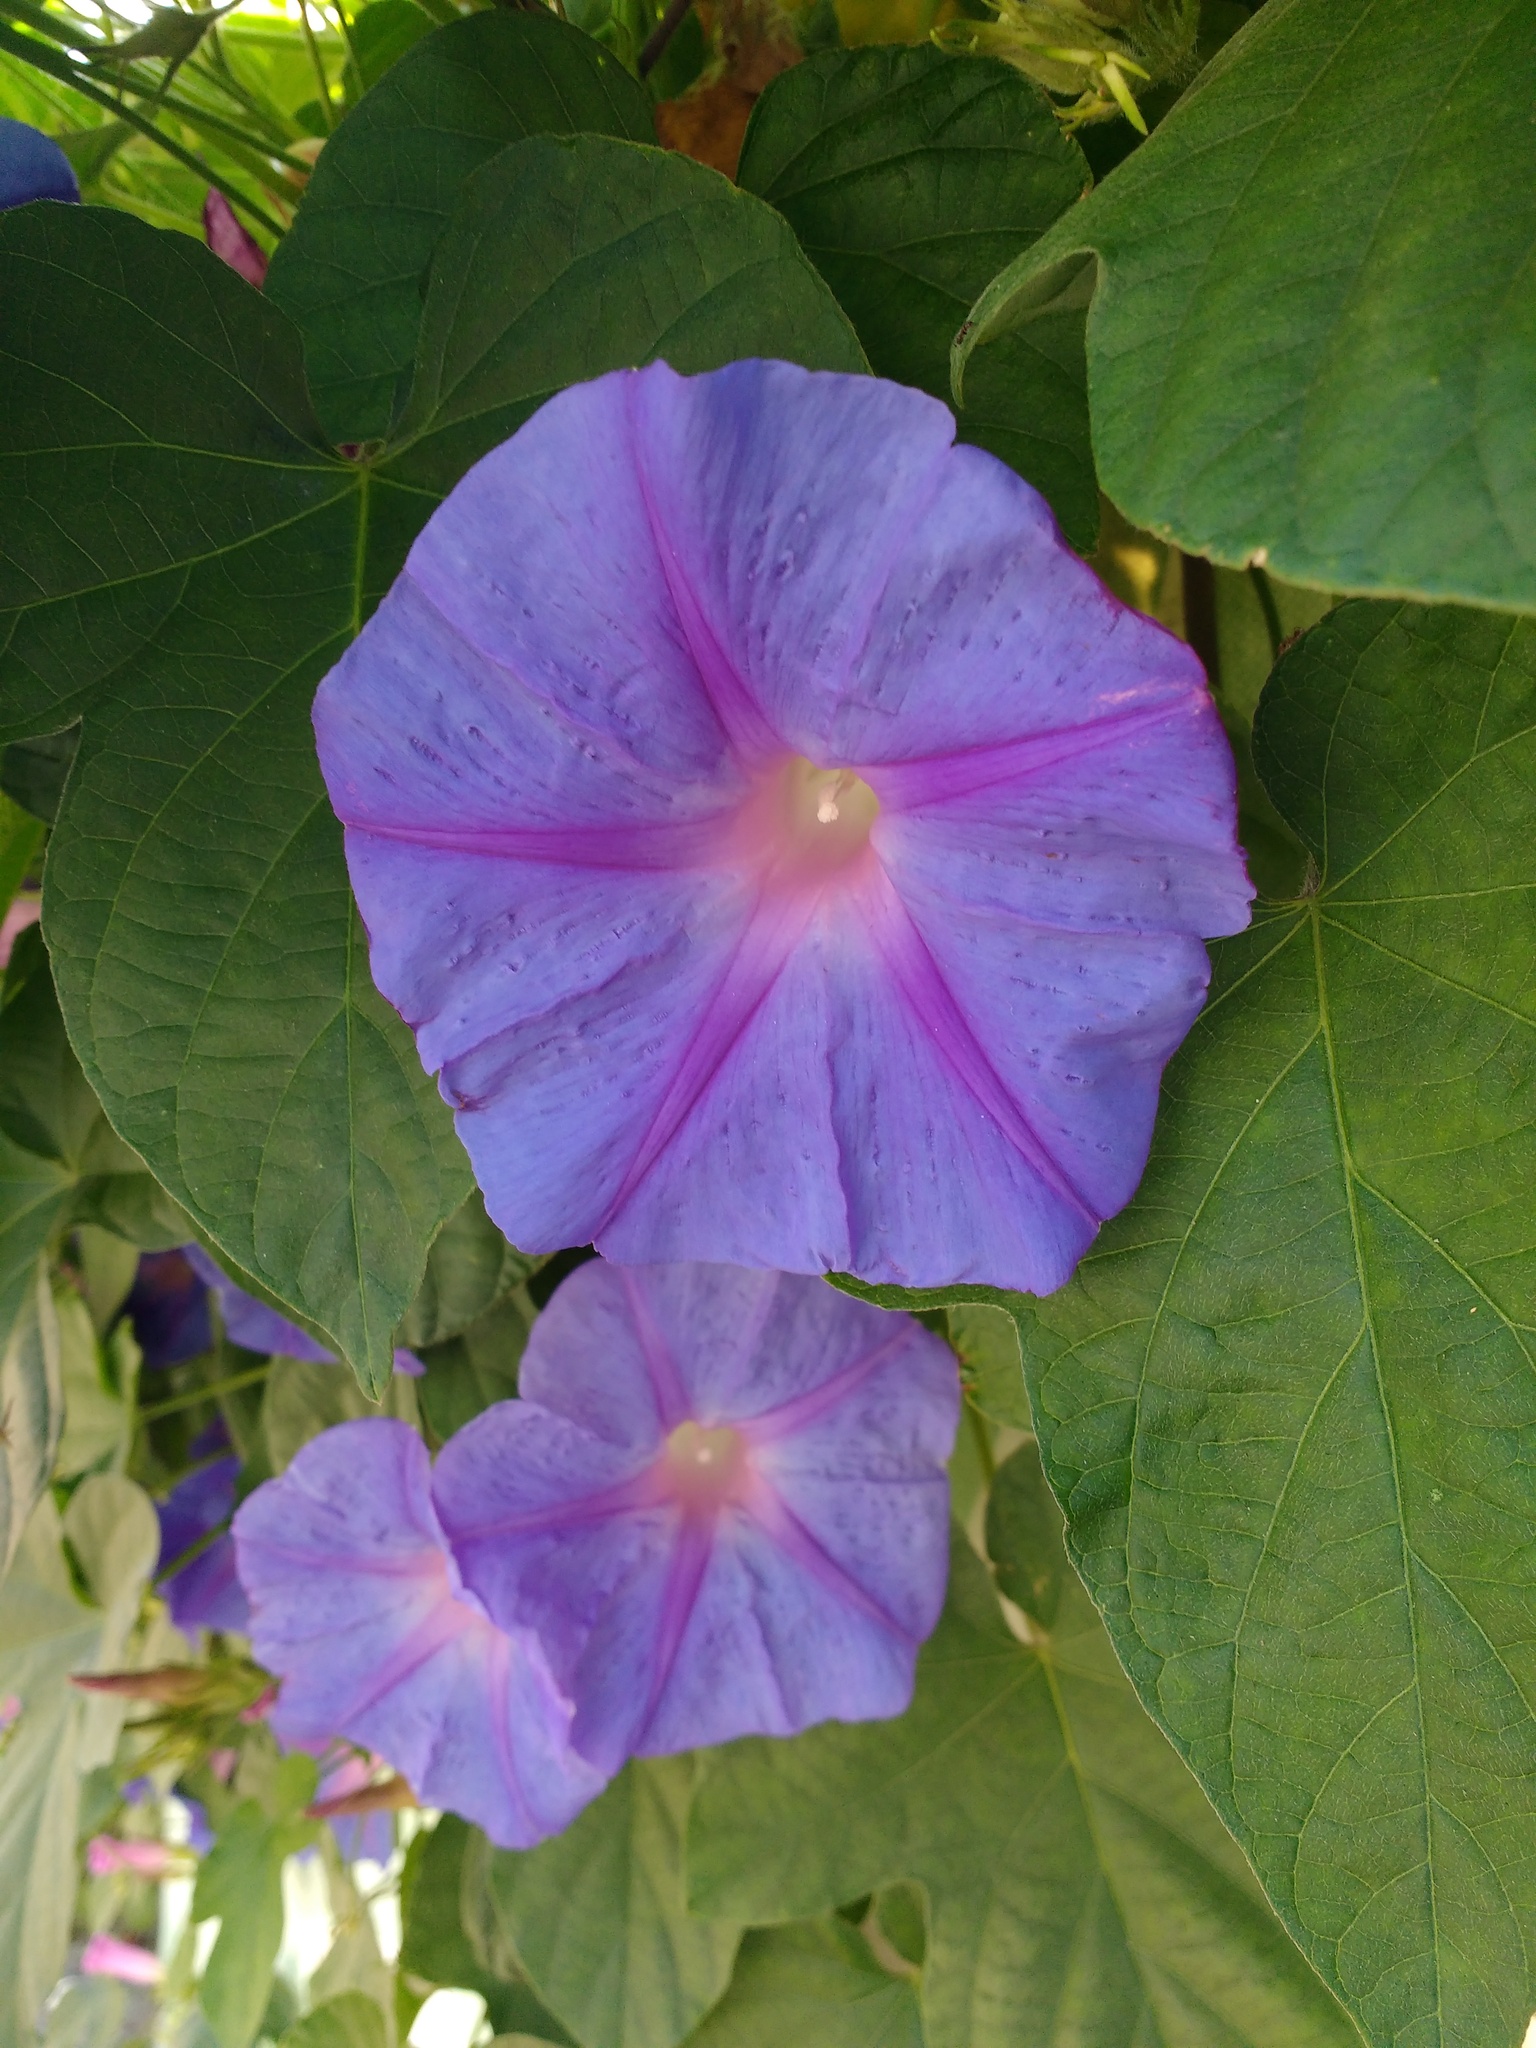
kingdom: Plantae
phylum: Tracheophyta
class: Magnoliopsida
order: Solanales
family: Convolvulaceae
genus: Ipomoea
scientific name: Ipomoea indica
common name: Blue dawnflower
